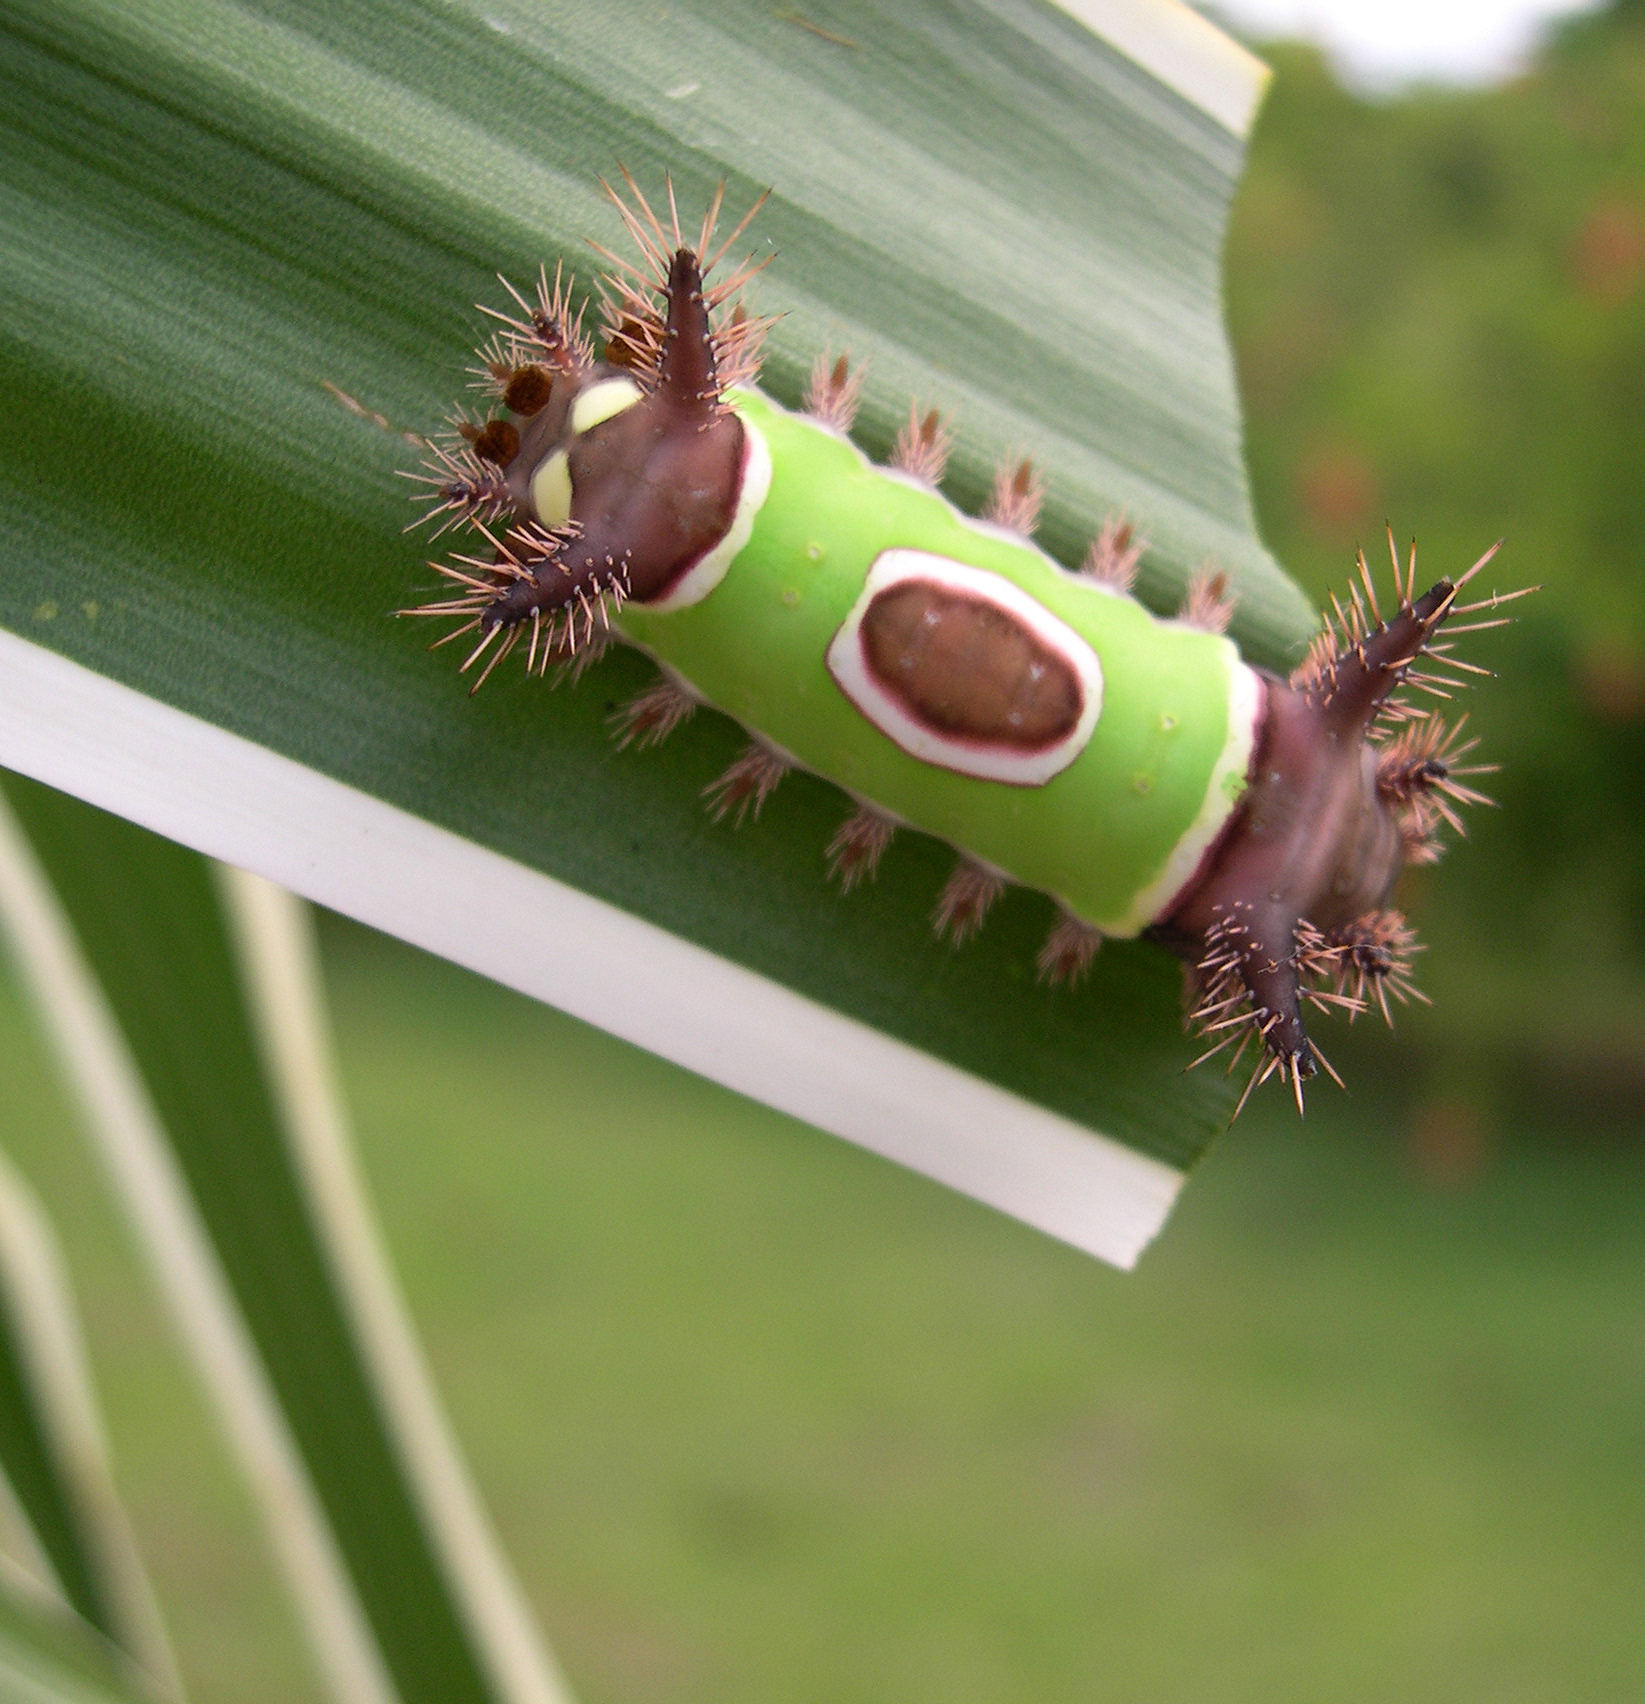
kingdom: Animalia
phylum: Arthropoda
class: Insecta
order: Lepidoptera
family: Limacodidae
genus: Acharia
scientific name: Acharia hyperoche
